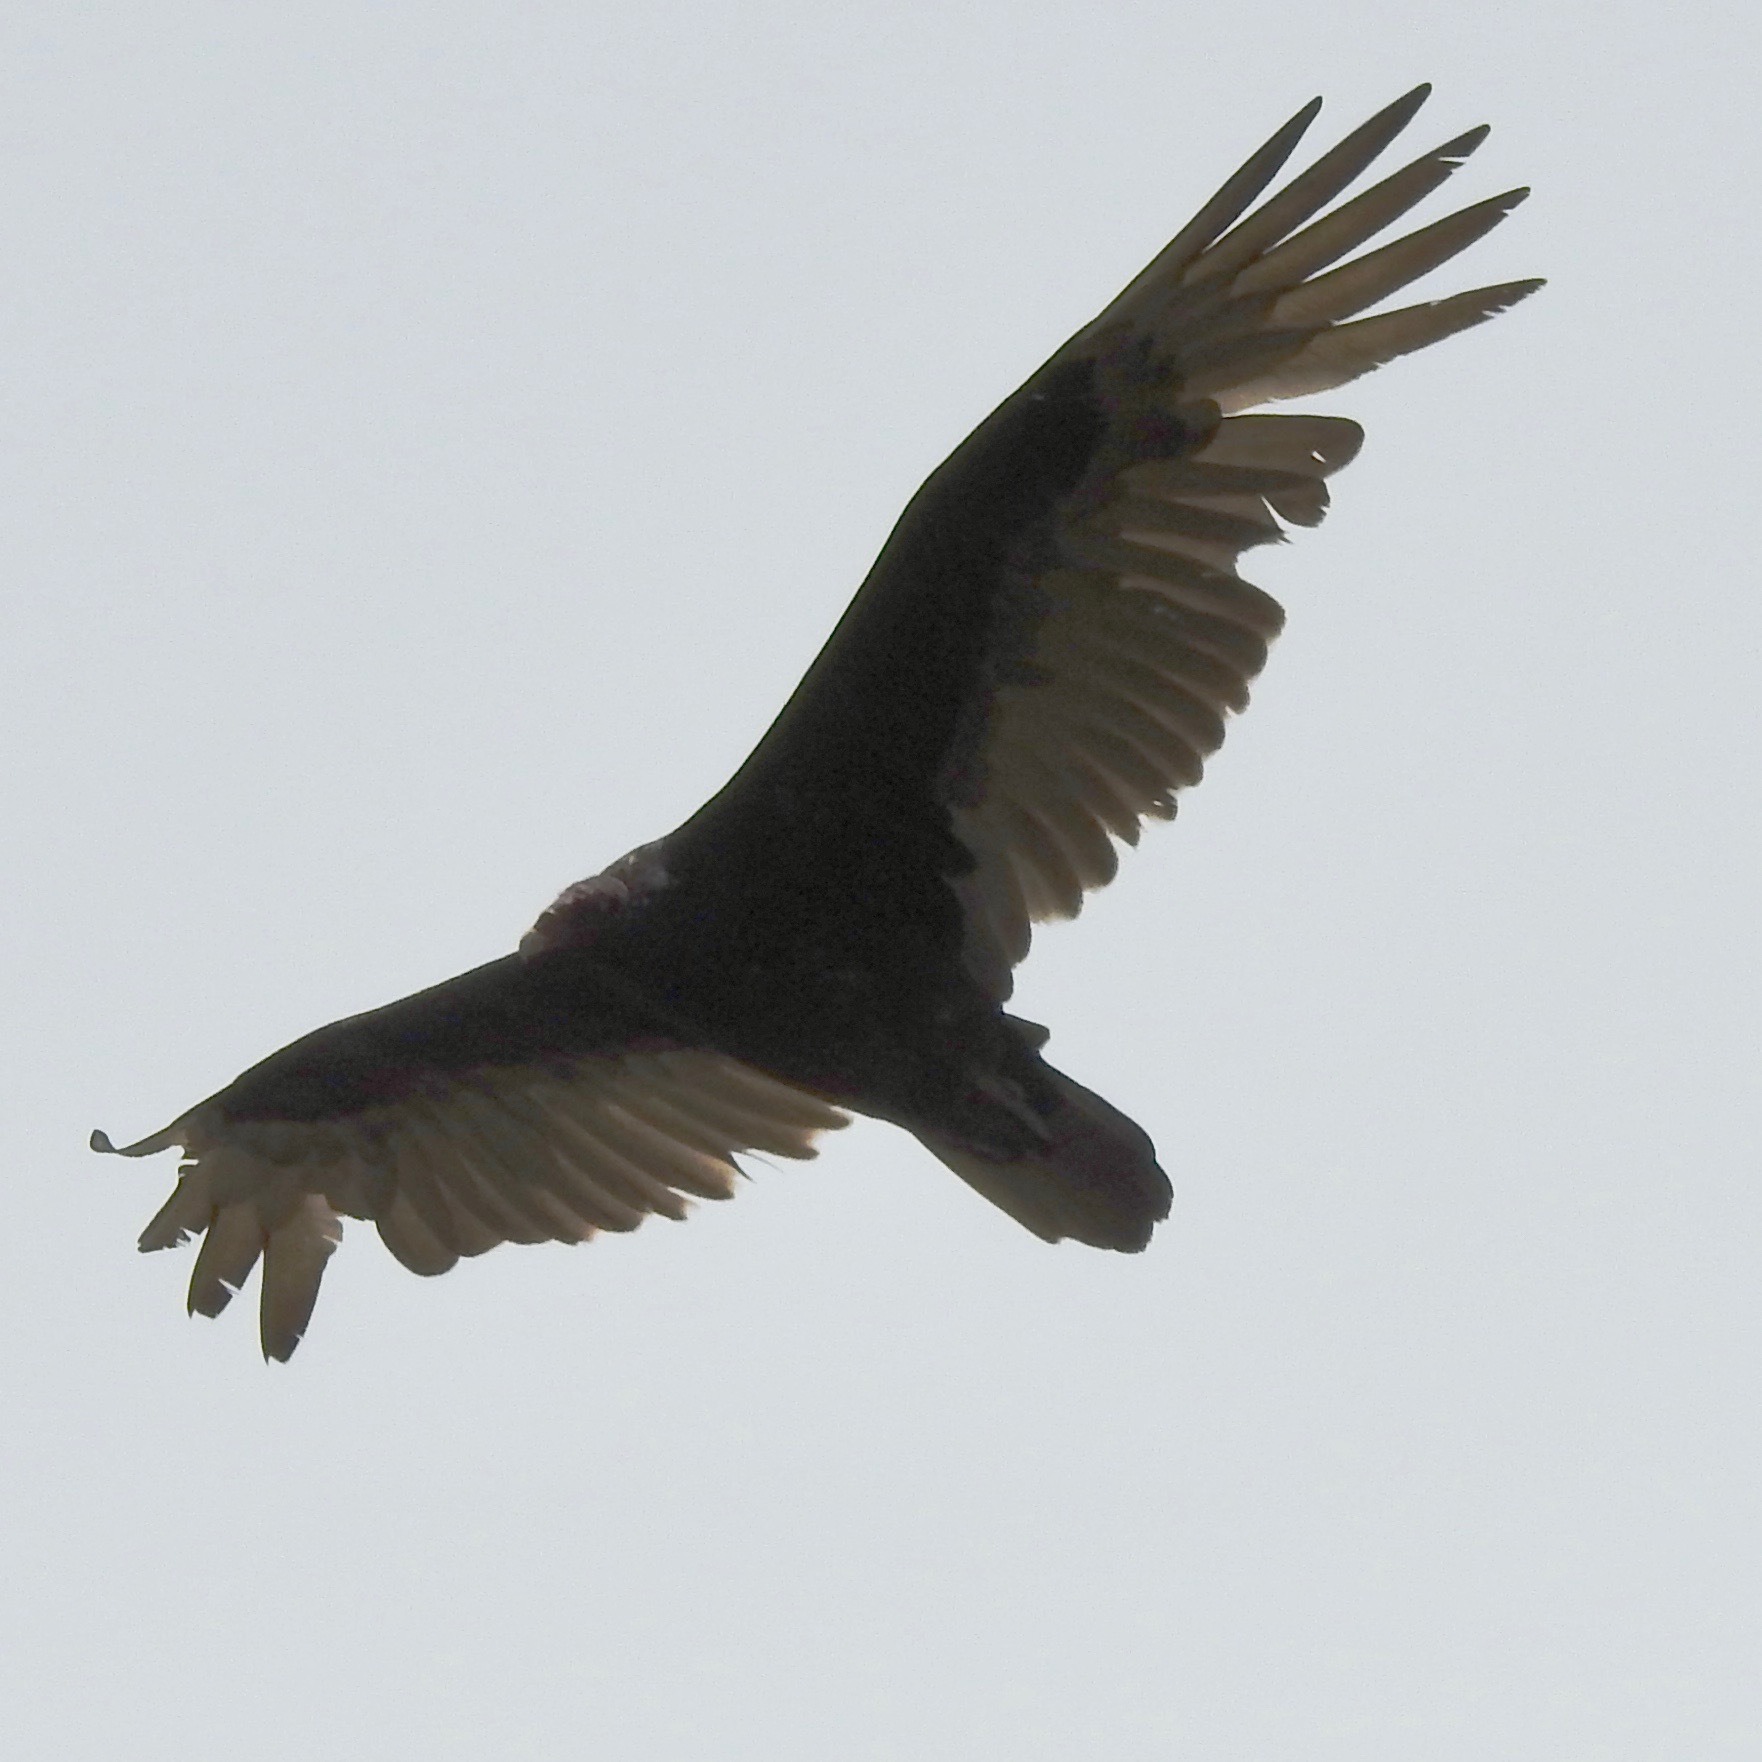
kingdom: Animalia
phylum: Chordata
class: Aves
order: Accipitriformes
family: Cathartidae
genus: Cathartes
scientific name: Cathartes aura
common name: Turkey vulture
